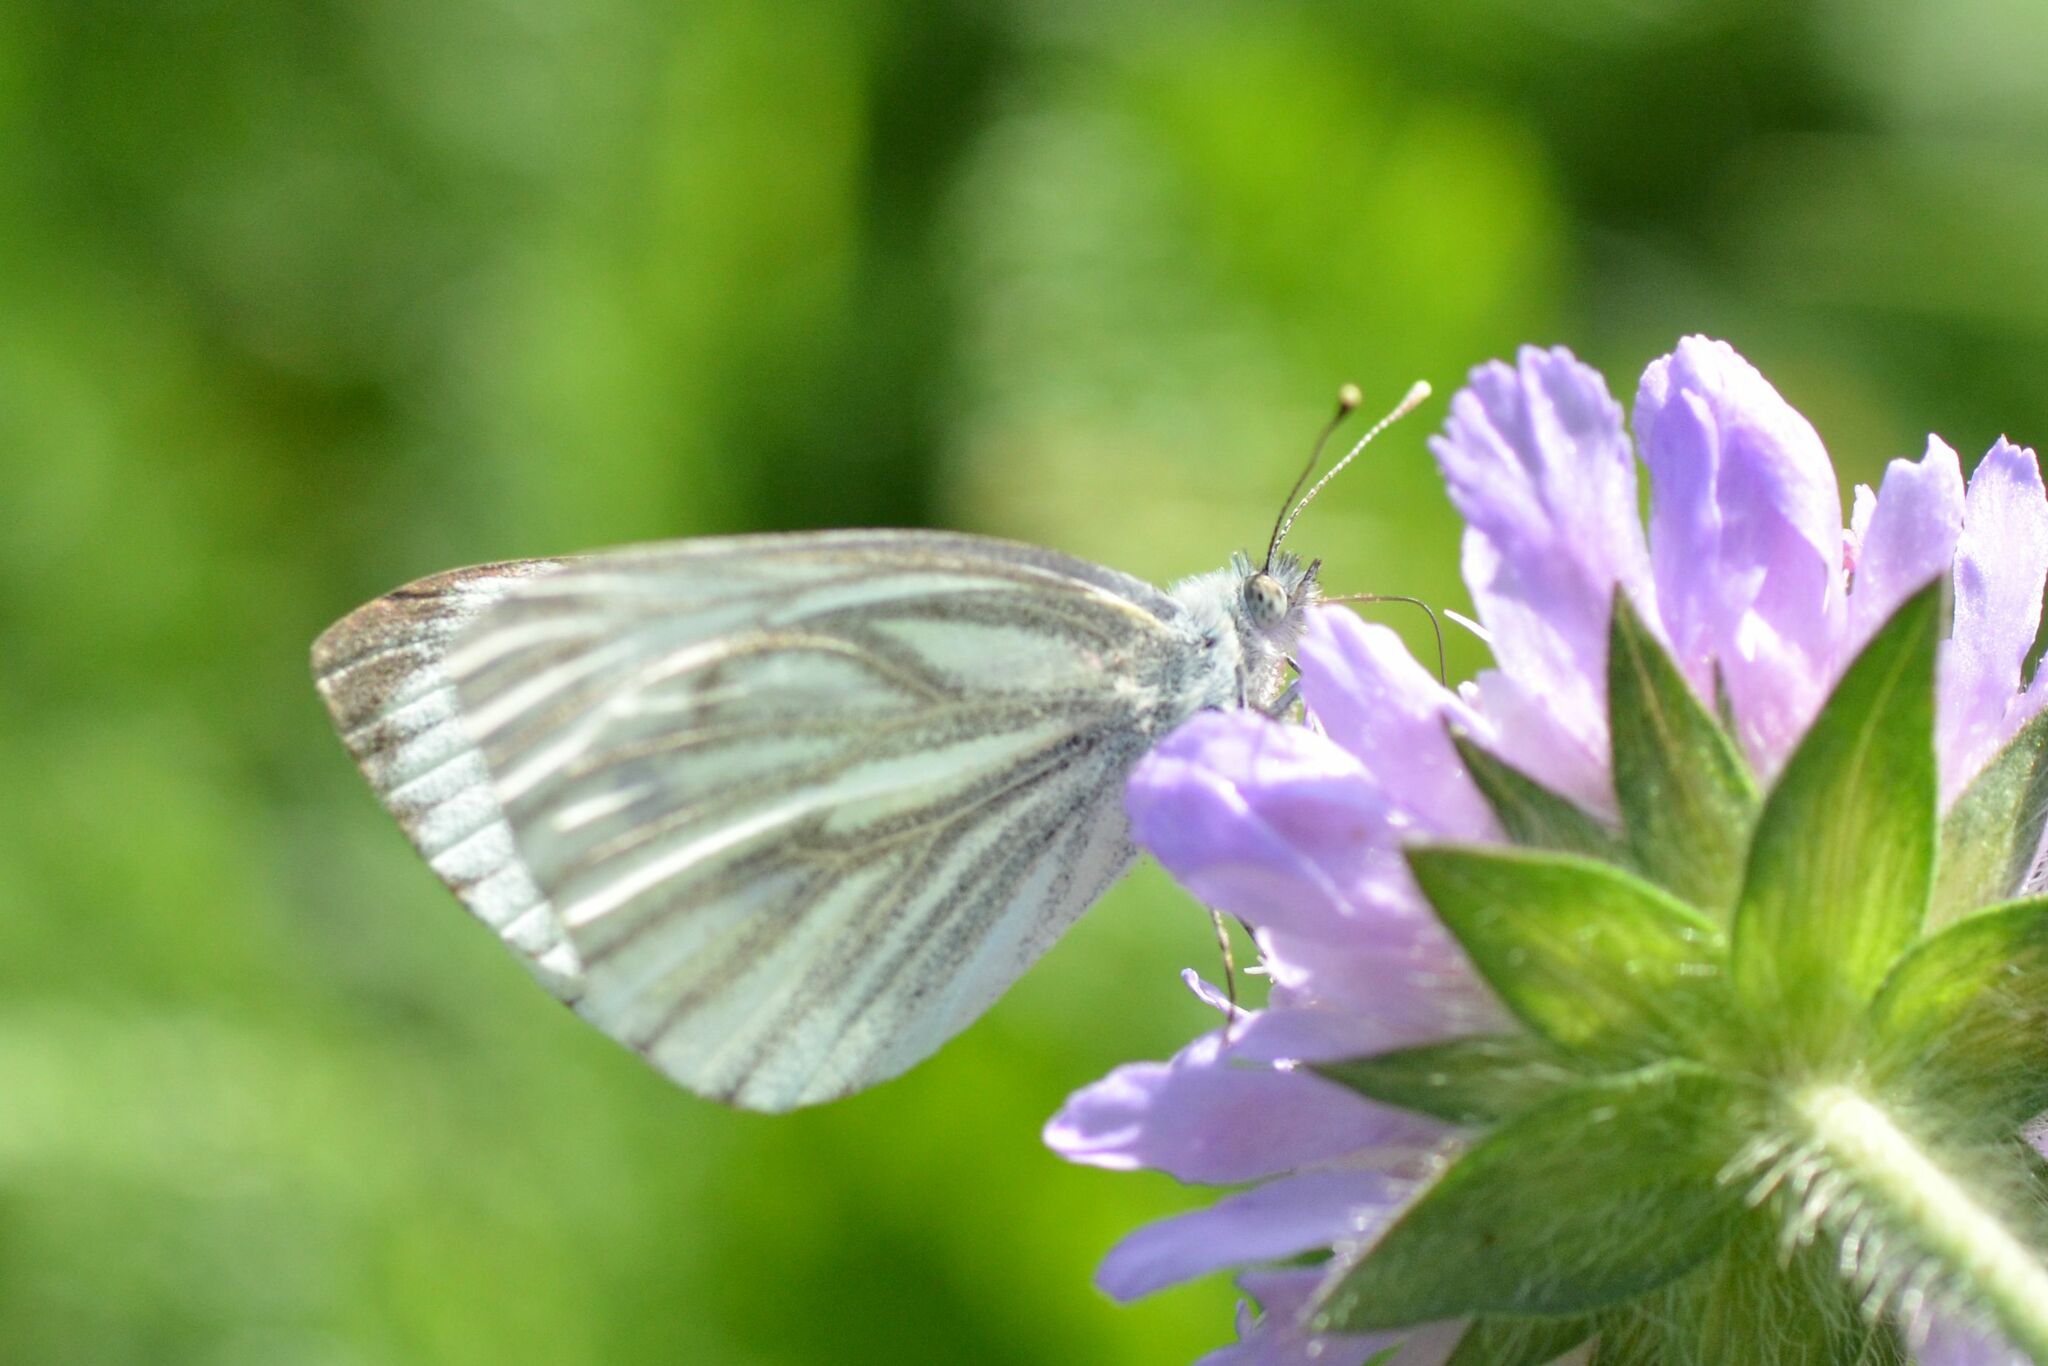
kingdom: Animalia
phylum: Arthropoda
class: Insecta
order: Lepidoptera
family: Pieridae
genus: Pieris
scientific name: Pieris napi
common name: Green-veined white
